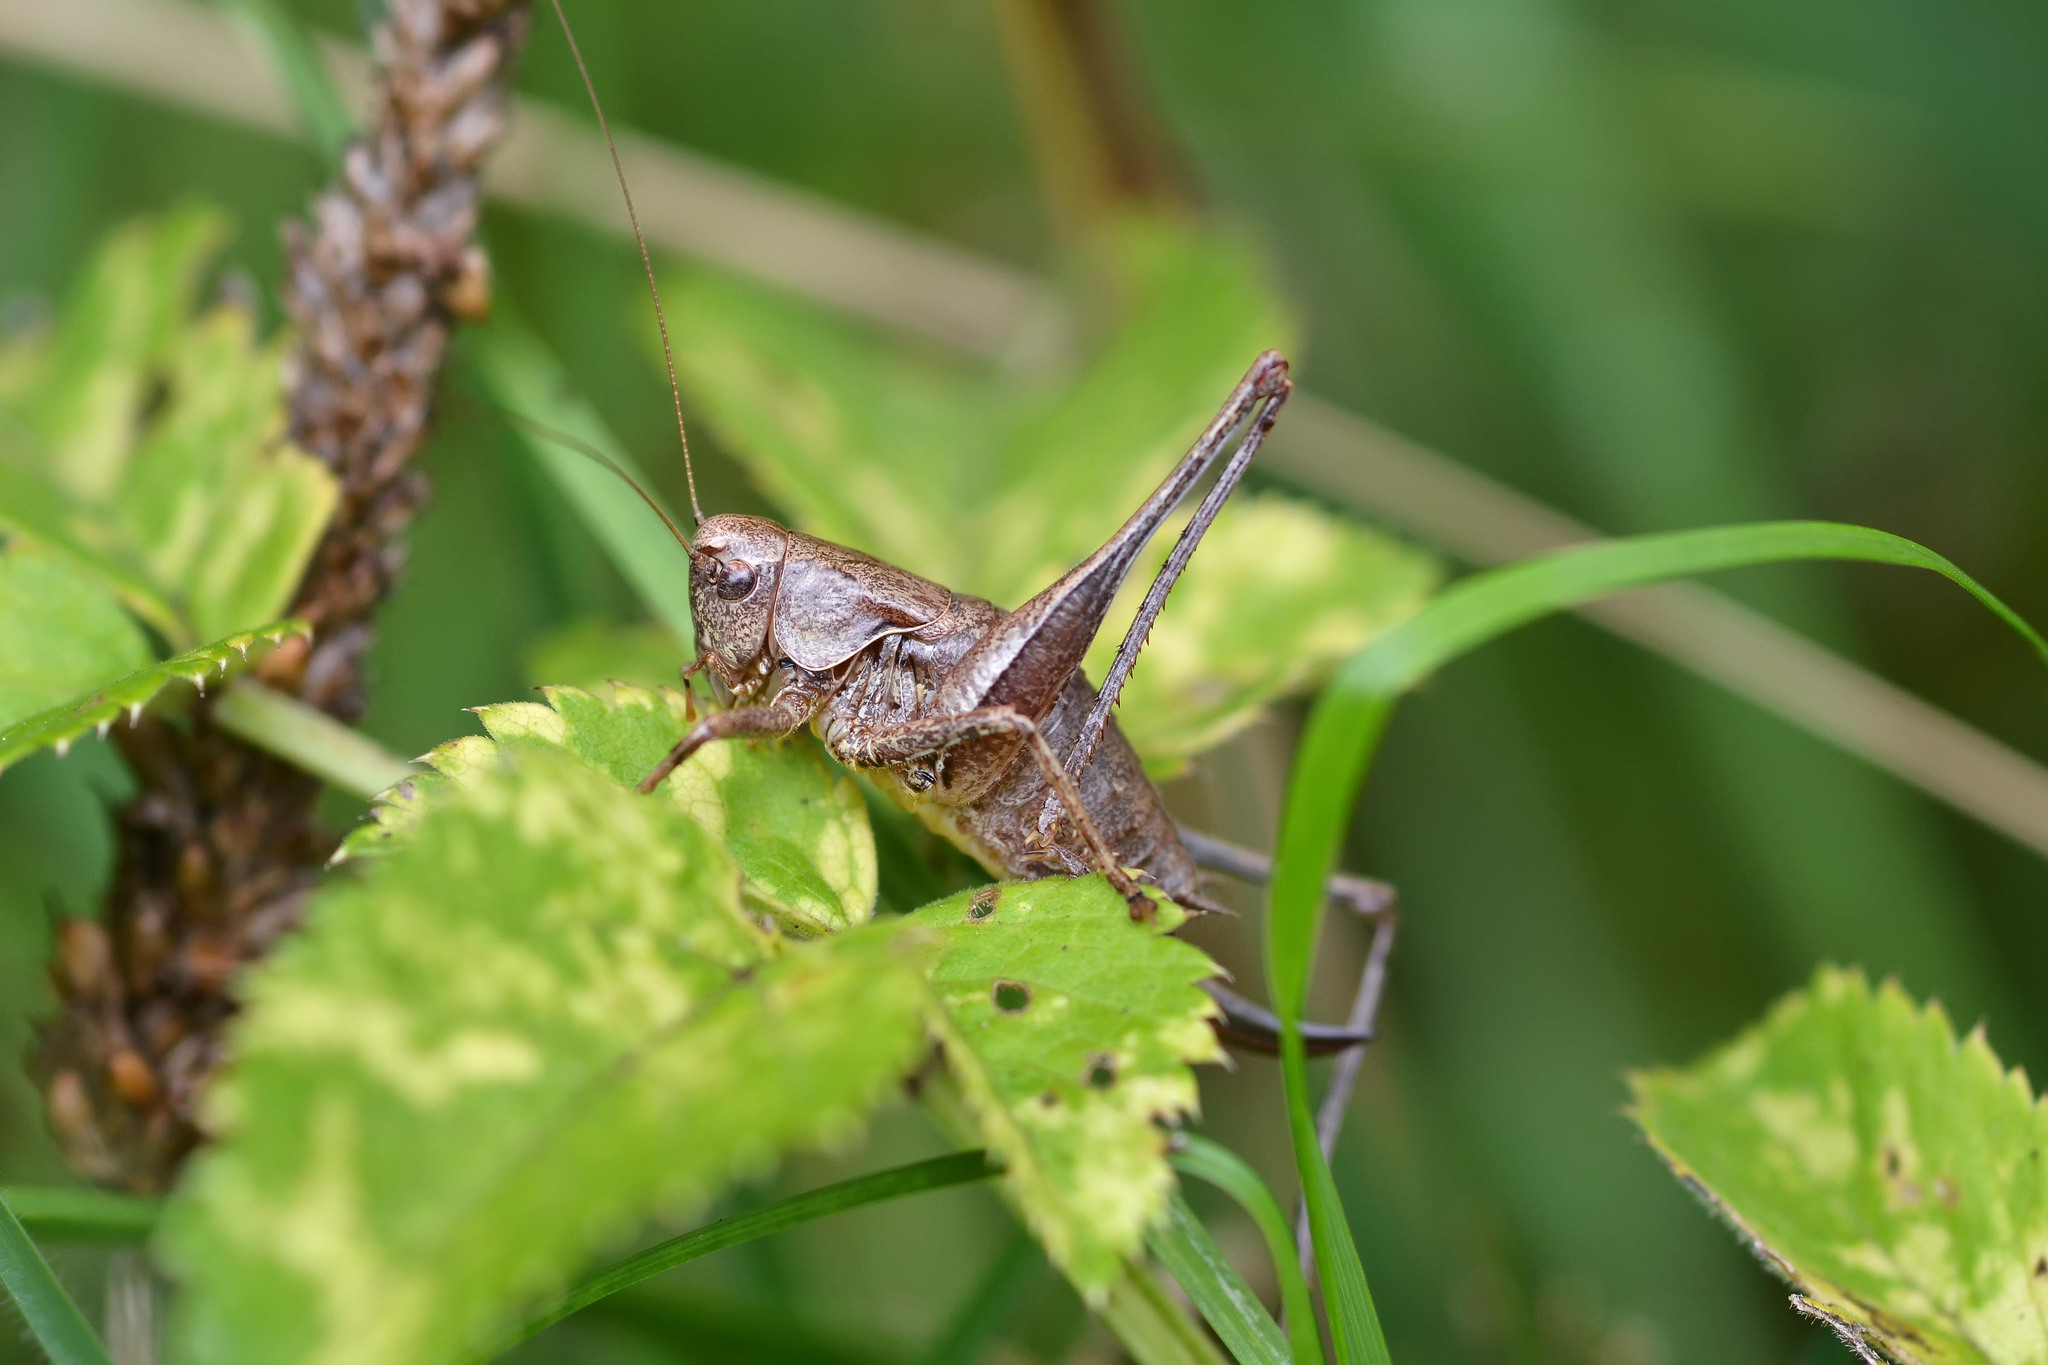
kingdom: Animalia
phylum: Arthropoda
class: Insecta
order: Orthoptera
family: Tettigoniidae
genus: Pholidoptera
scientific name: Pholidoptera griseoaptera
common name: Dark bush-cricket
